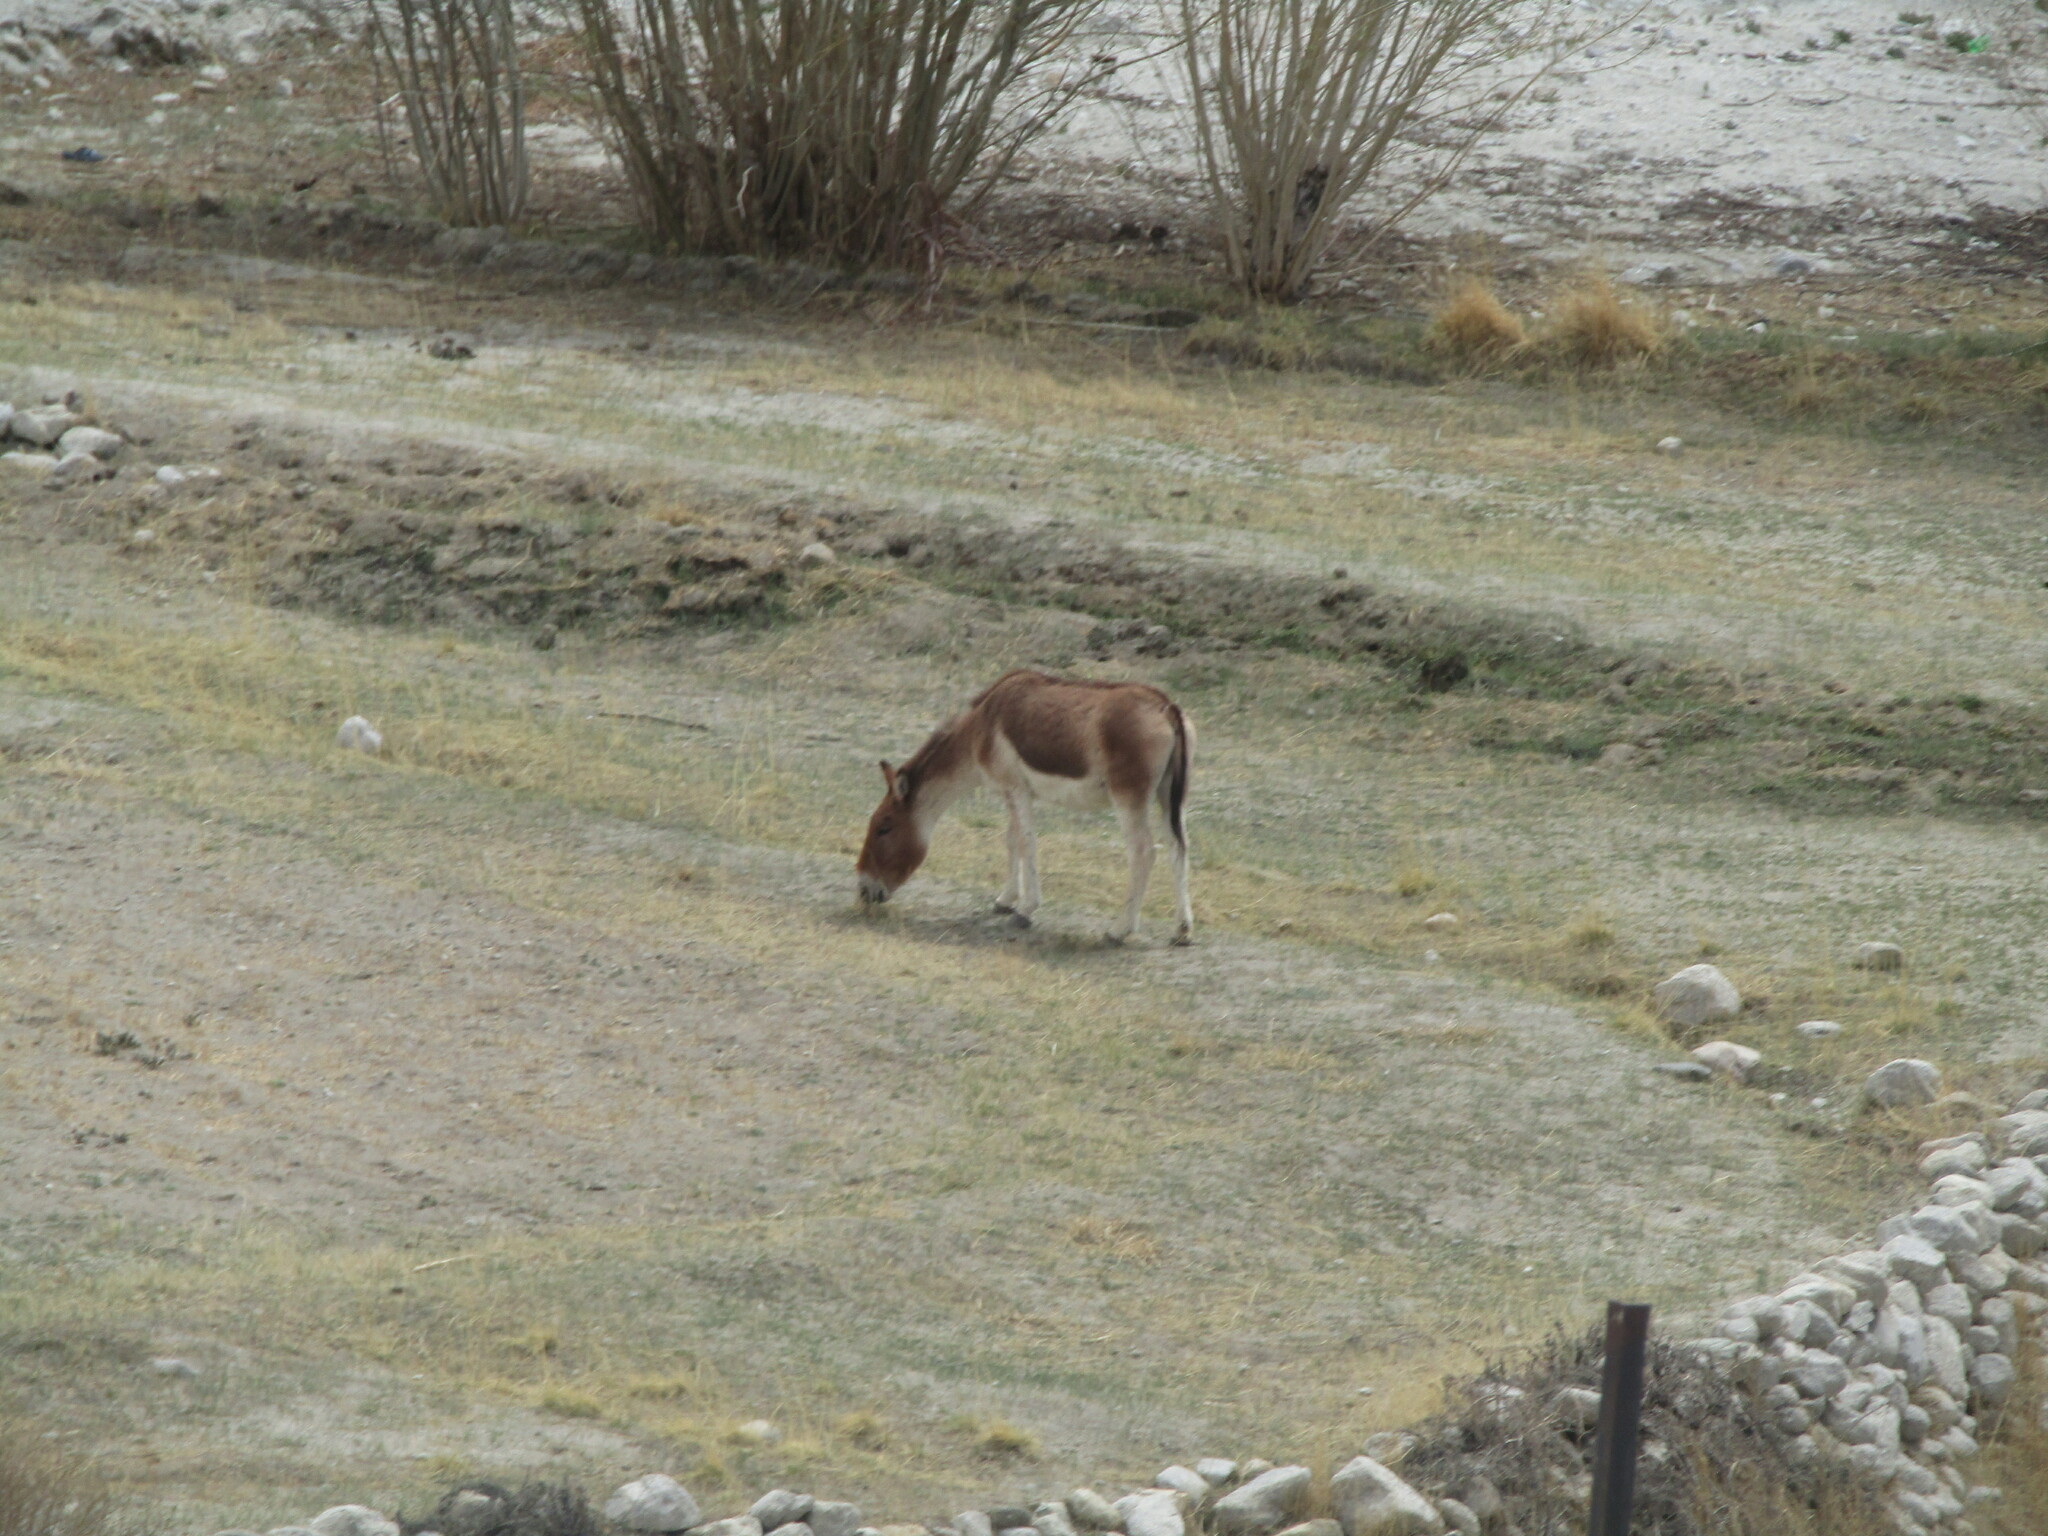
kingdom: Animalia
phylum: Chordata
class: Mammalia
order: Perissodactyla
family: Equidae
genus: Equus
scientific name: Equus kiang
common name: Kiang
